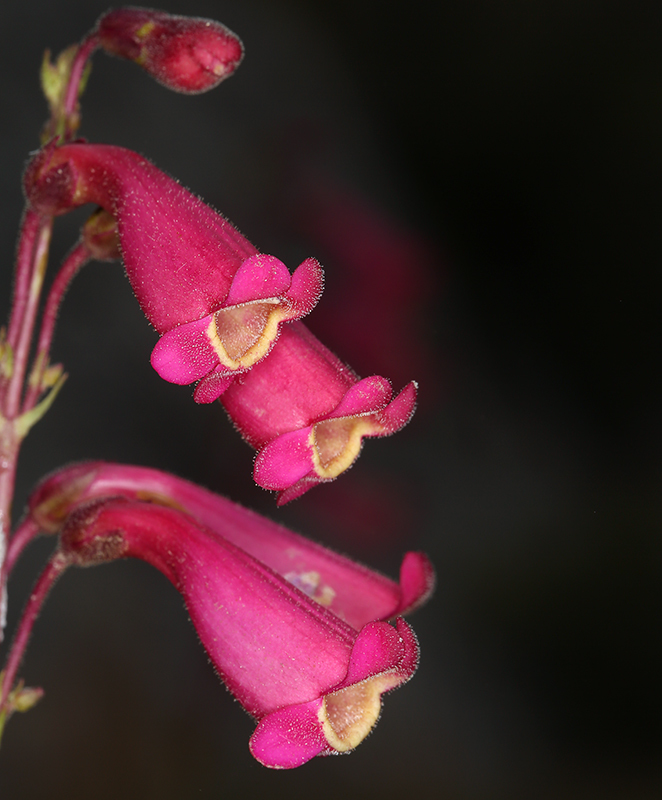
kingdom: Plantae
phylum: Tracheophyta
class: Magnoliopsida
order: Lamiales
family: Plantaginaceae
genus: Penstemon
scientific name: Penstemon floridus
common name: Panamint penstemon
